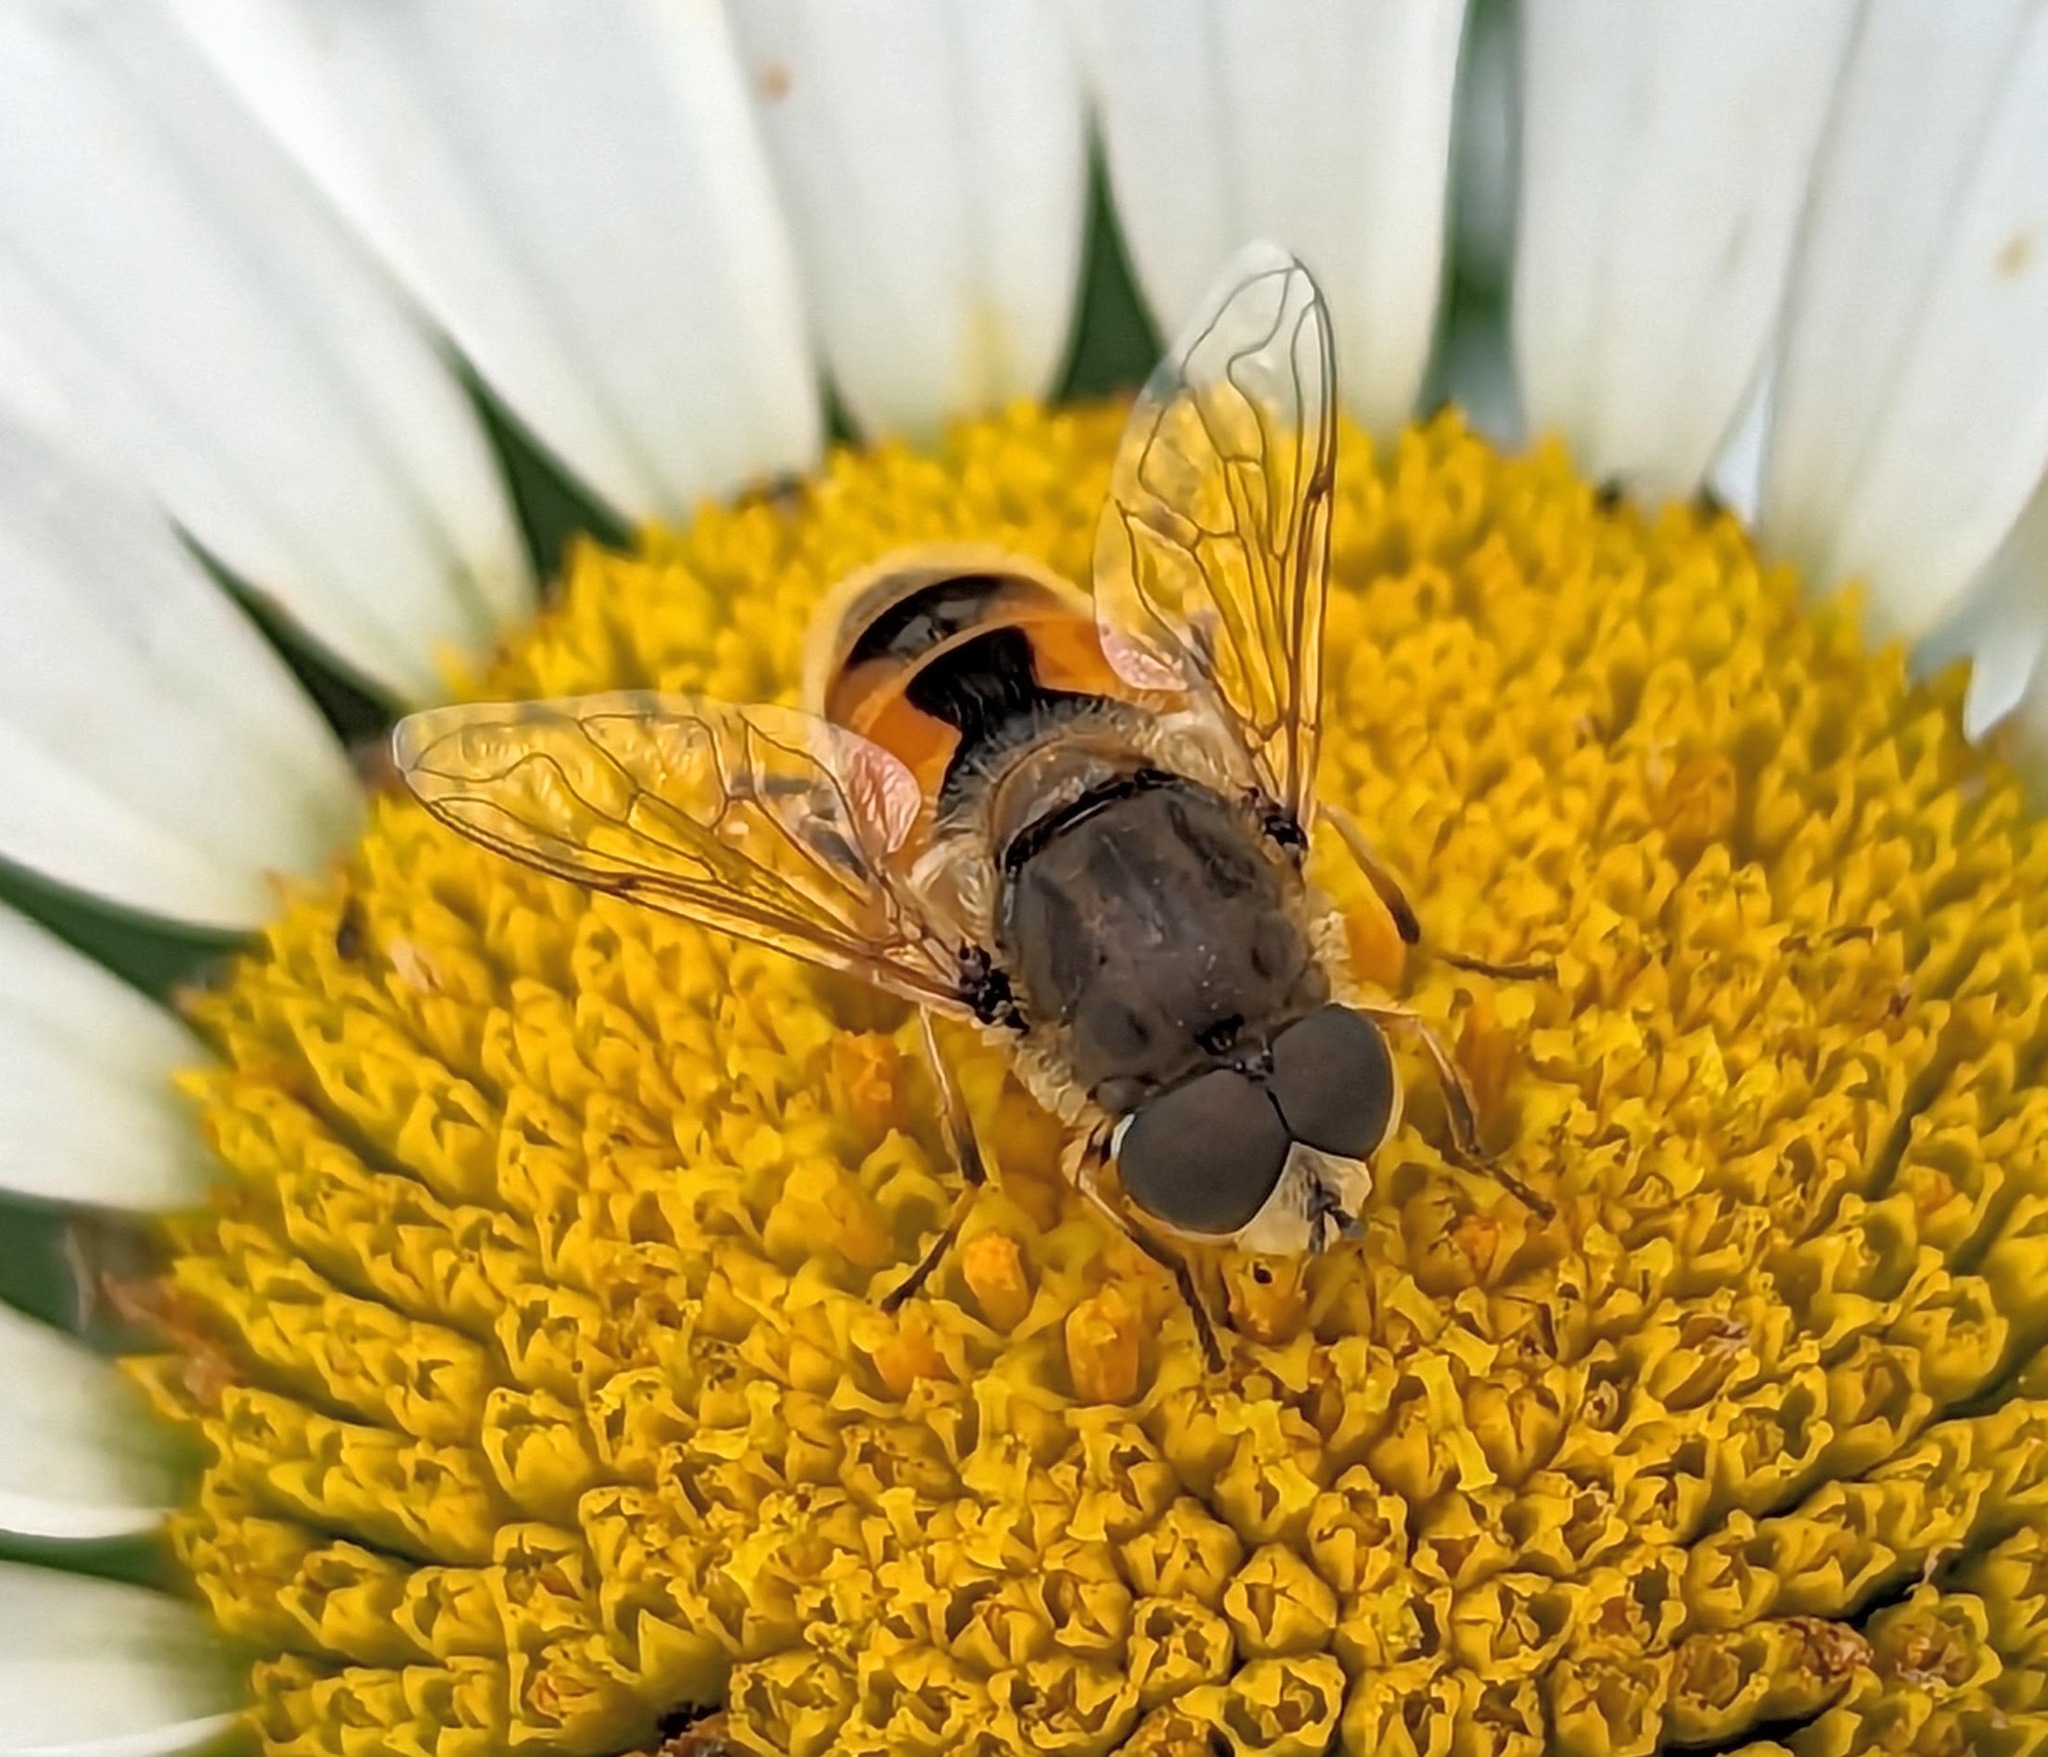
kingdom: Animalia
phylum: Arthropoda
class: Insecta
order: Diptera
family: Syrphidae
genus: Eristalis
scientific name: Eristalis arbustorum
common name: Hover fly
